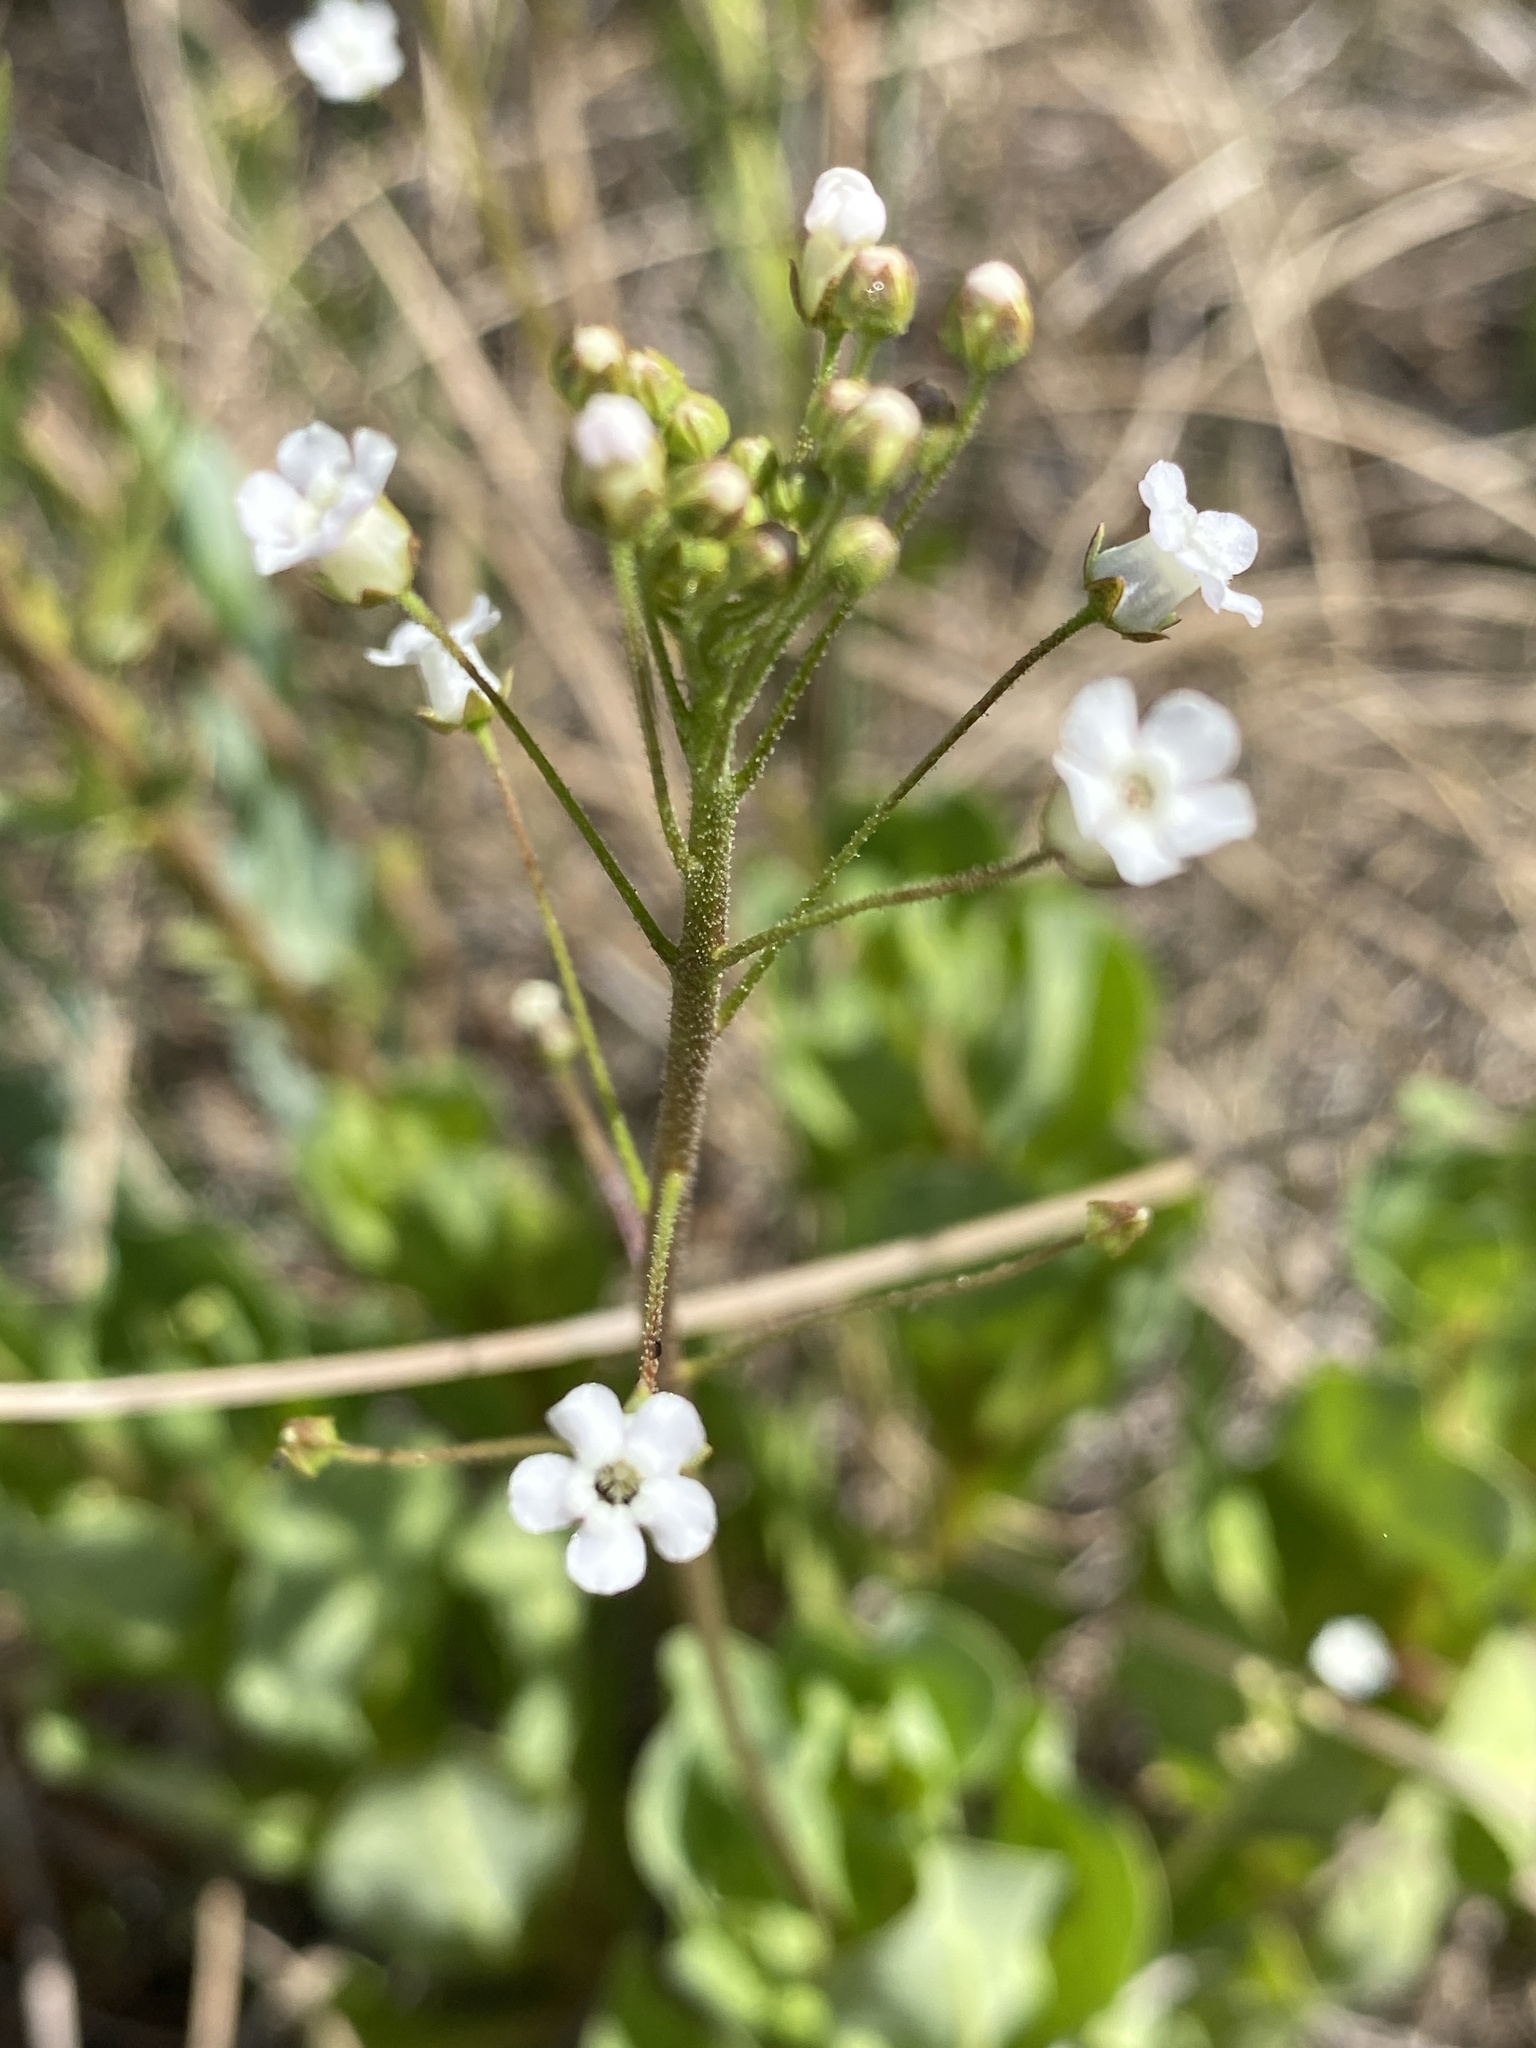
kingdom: Plantae
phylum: Tracheophyta
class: Magnoliopsida
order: Ericales
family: Primulaceae
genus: Samolus
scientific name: Samolus ebracteatus
